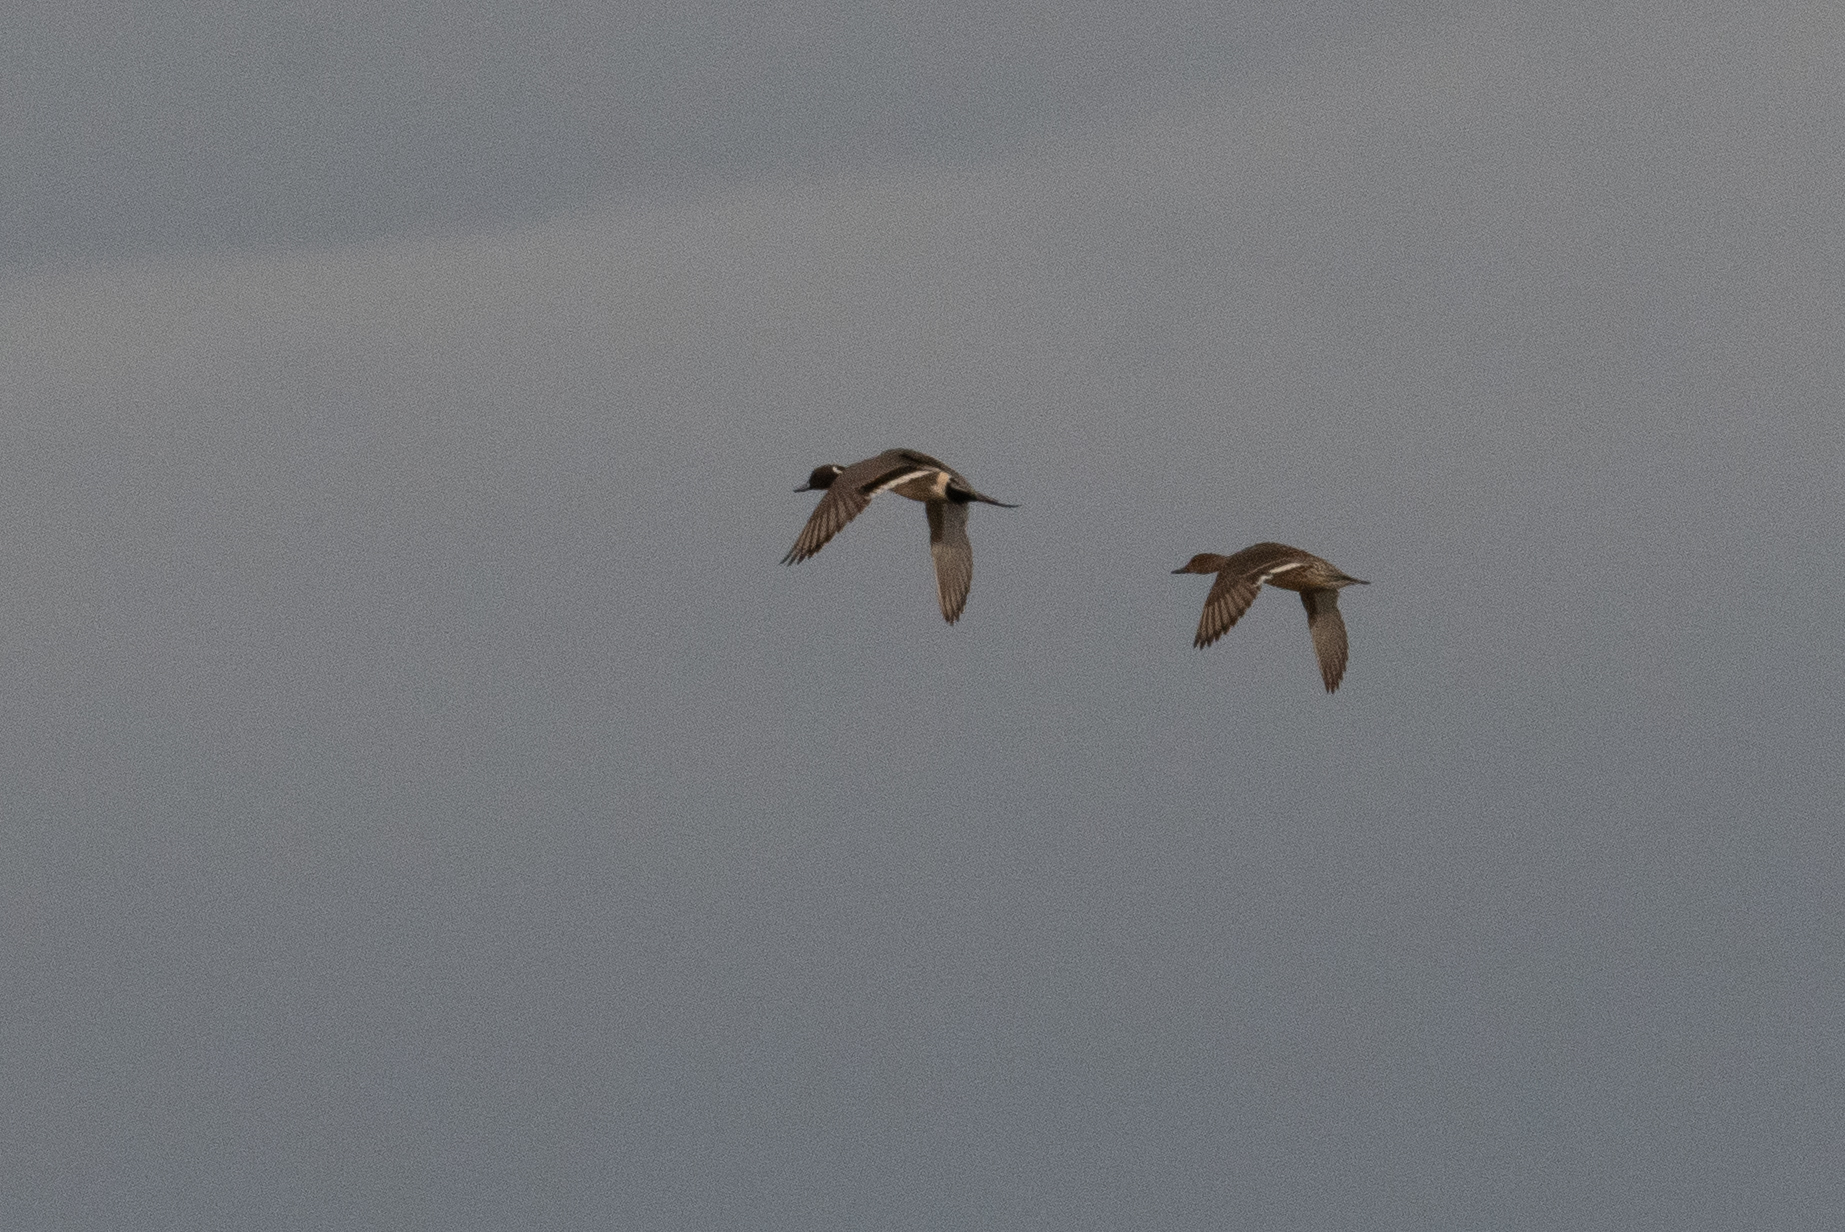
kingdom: Animalia
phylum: Chordata
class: Aves
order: Anseriformes
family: Anatidae
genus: Anas
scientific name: Anas acuta
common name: Northern pintail
